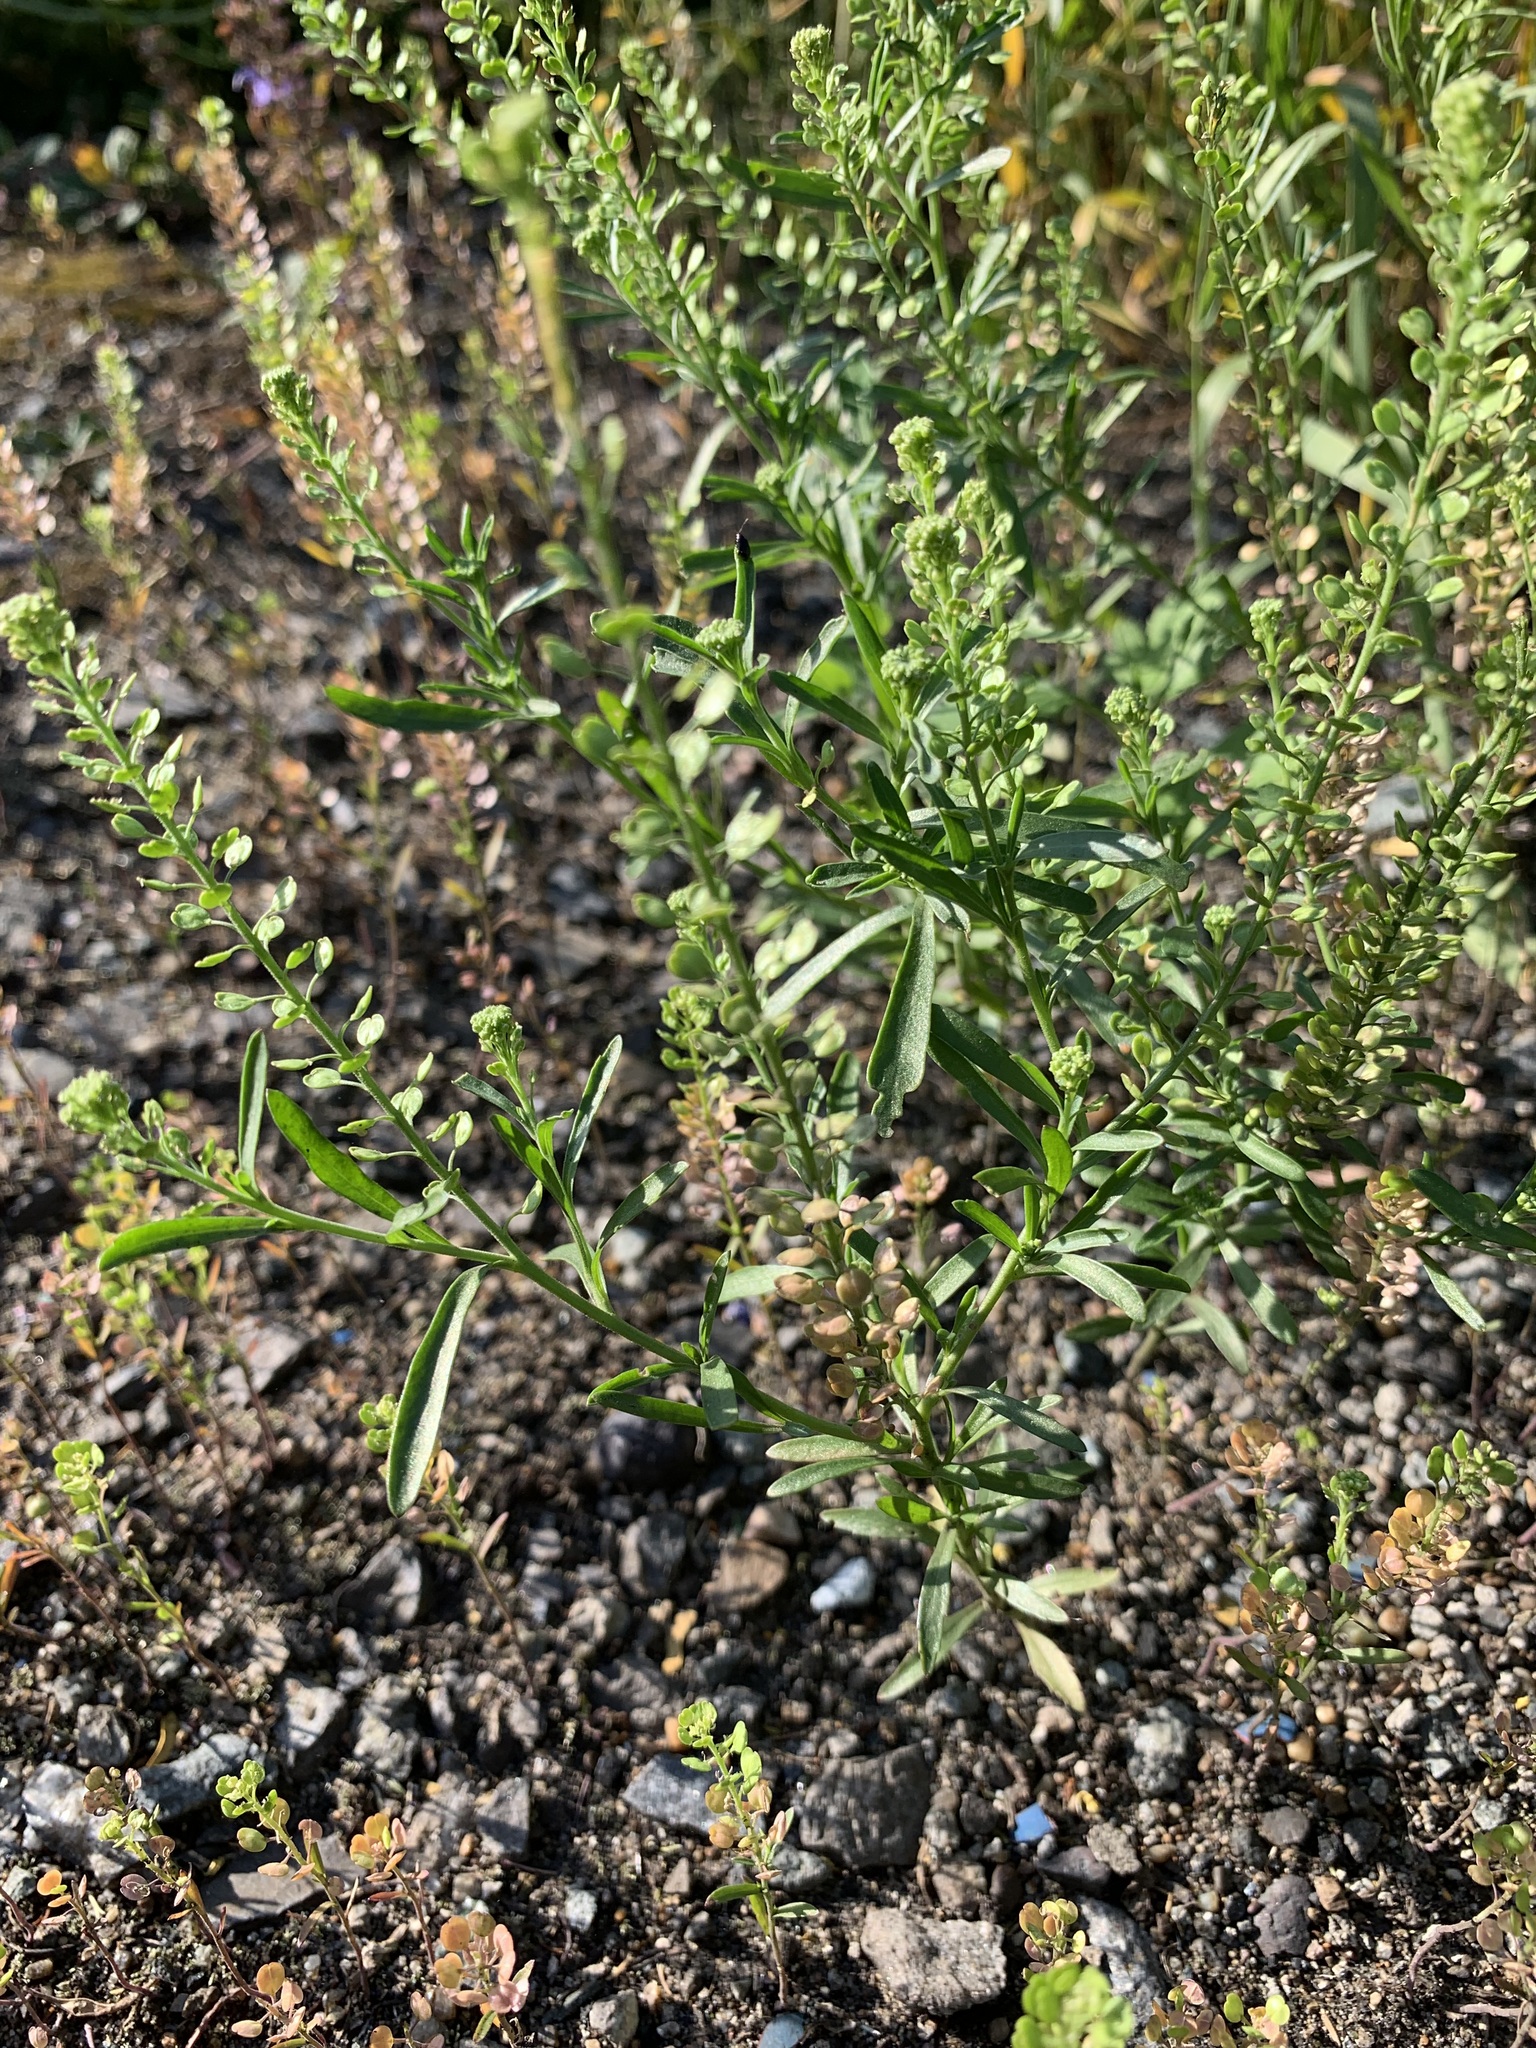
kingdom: Plantae
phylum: Tracheophyta
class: Magnoliopsida
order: Brassicales
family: Brassicaceae
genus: Lepidium
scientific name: Lepidium densiflorum
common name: Miner's pepperwort
